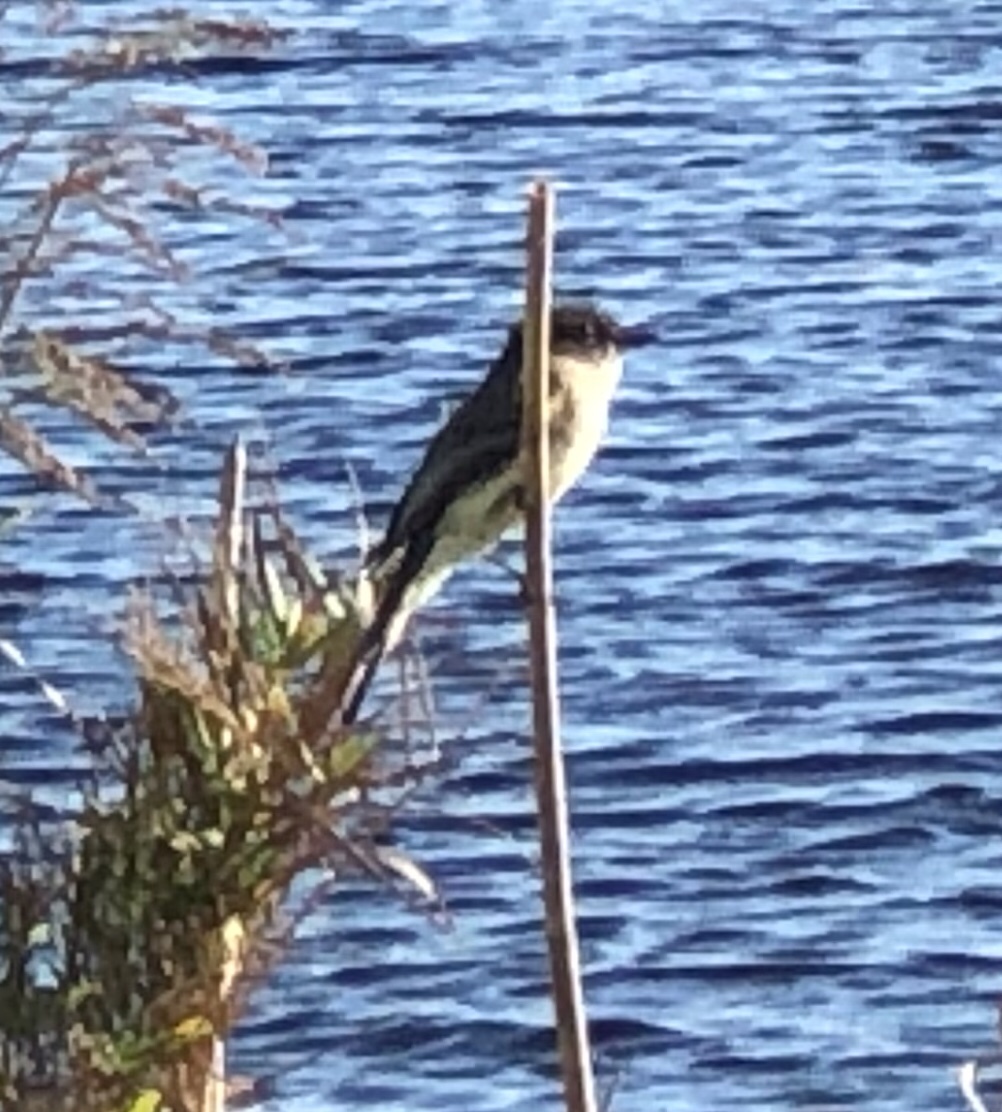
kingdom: Animalia
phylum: Chordata
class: Aves
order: Passeriformes
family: Tyrannidae
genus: Sayornis
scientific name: Sayornis phoebe
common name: Eastern phoebe
